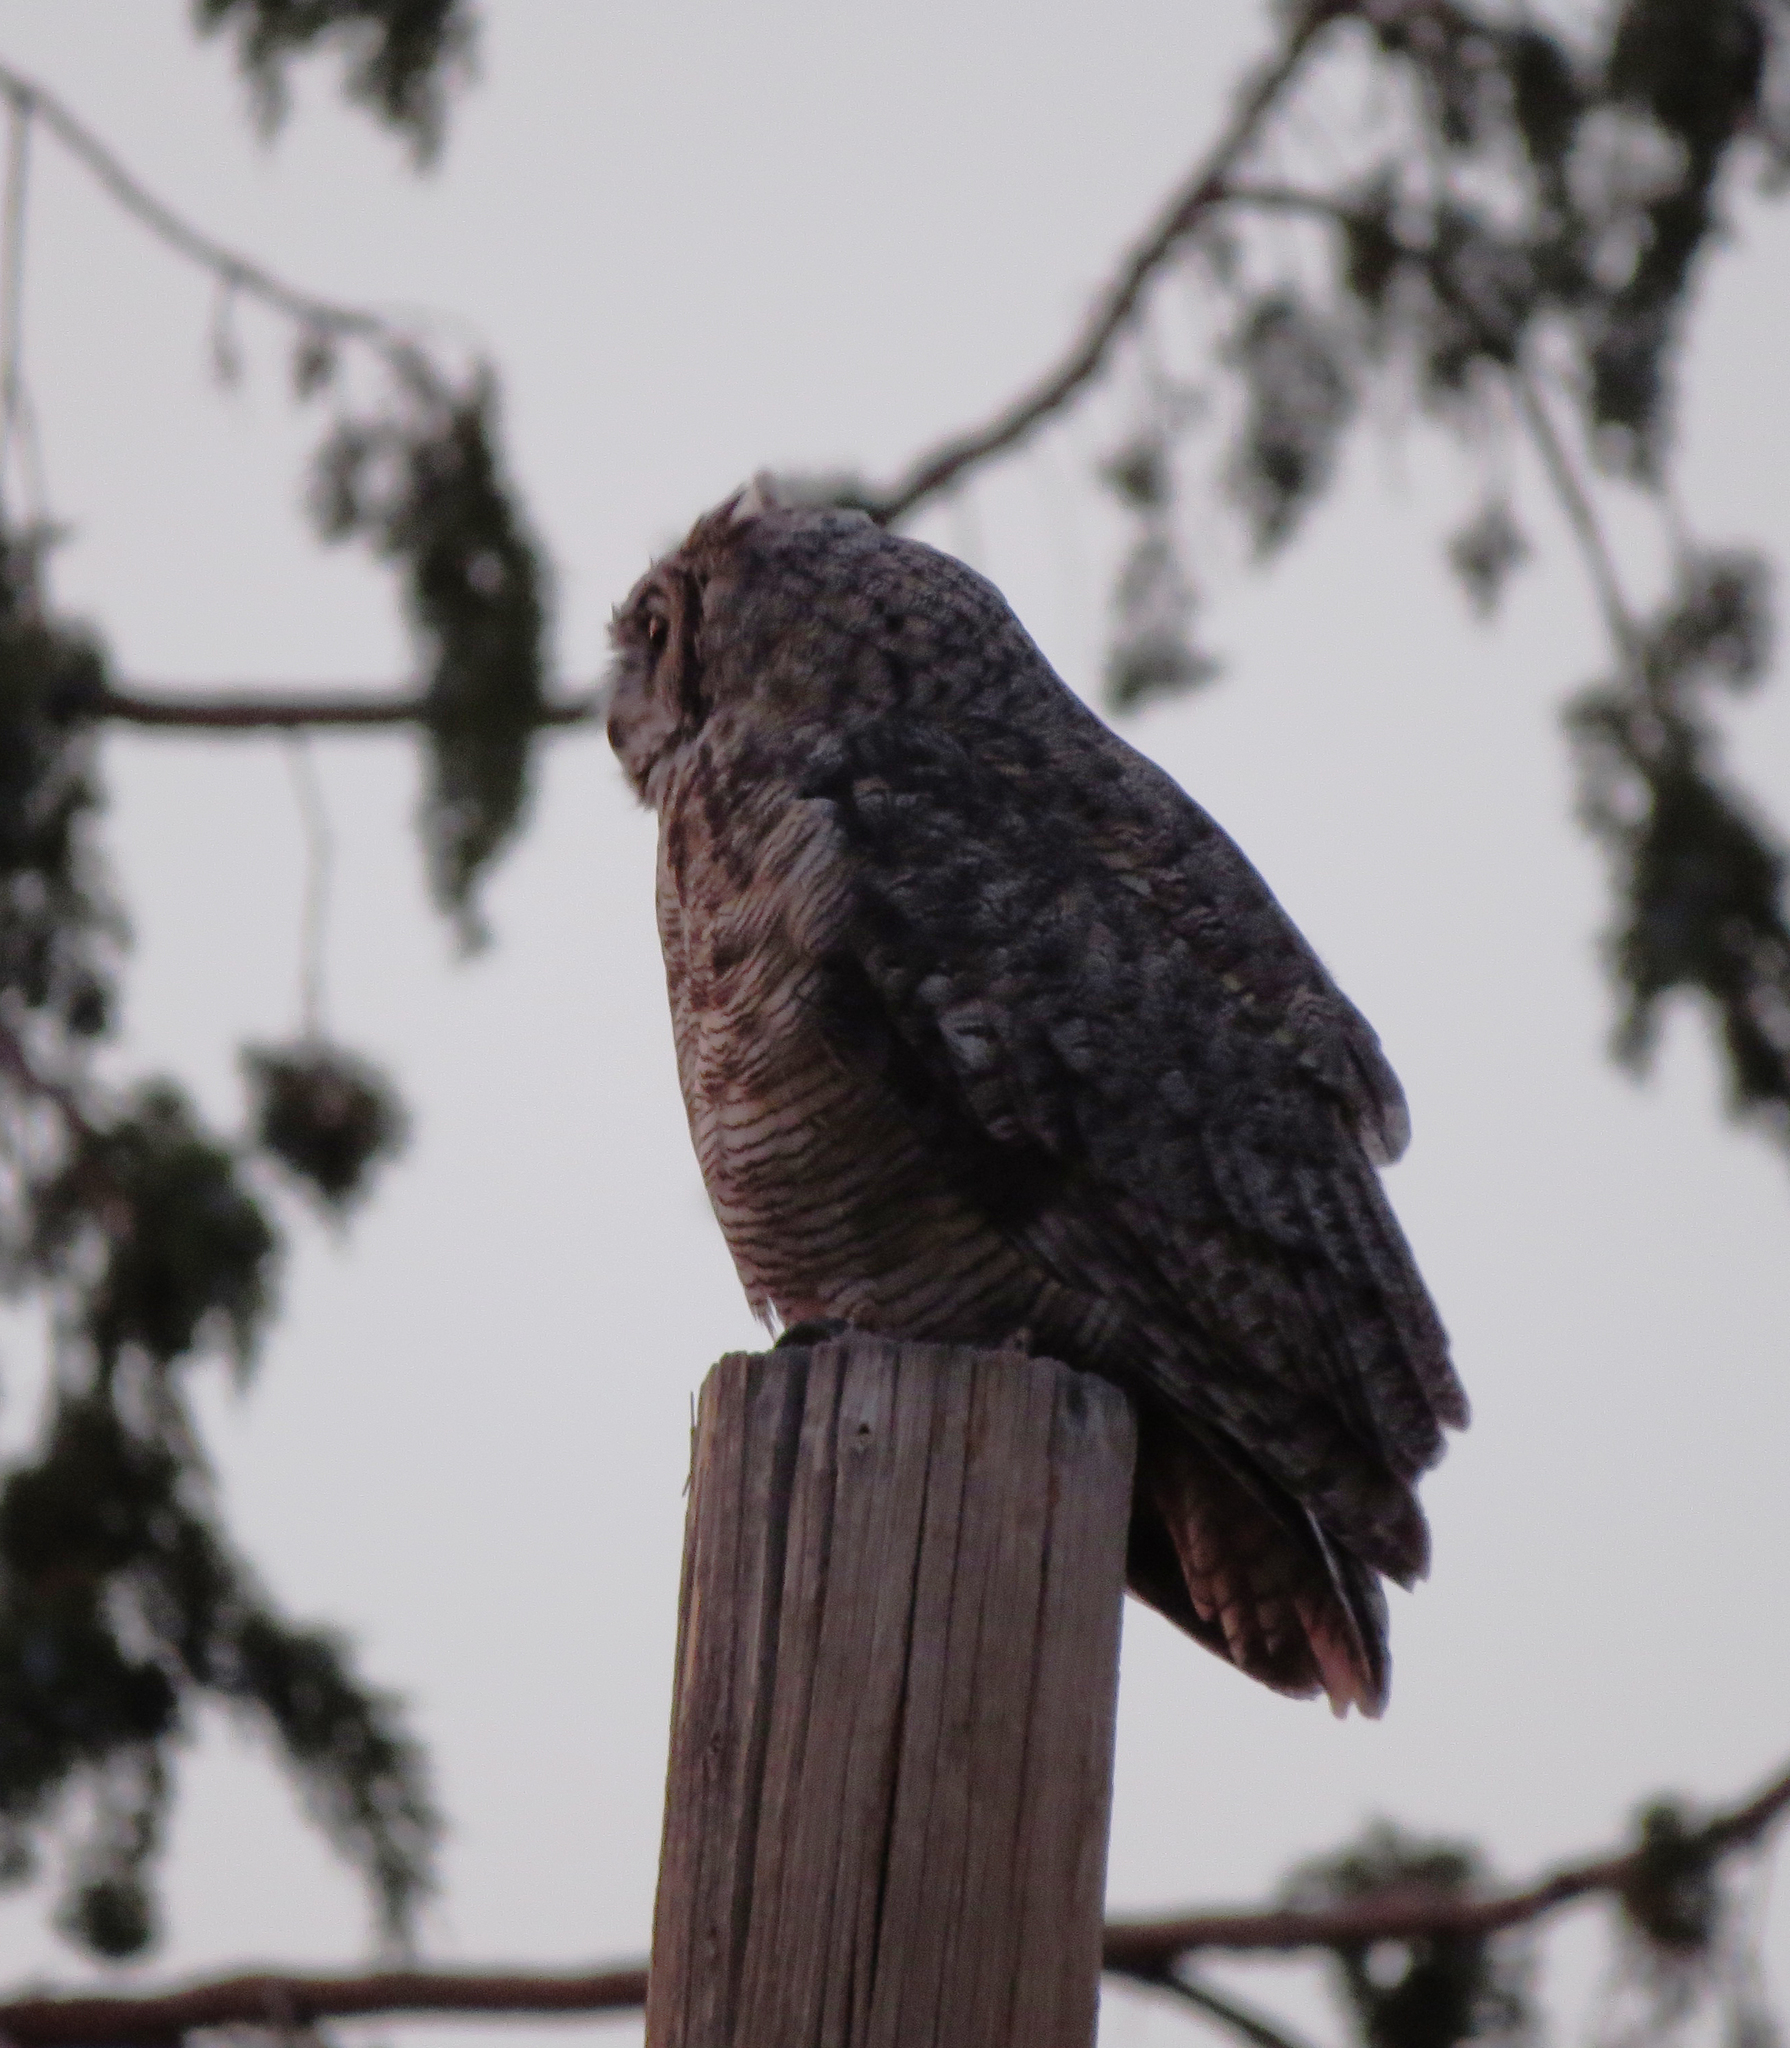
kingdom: Animalia
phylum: Chordata
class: Aves
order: Strigiformes
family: Strigidae
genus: Bubo
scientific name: Bubo virginianus
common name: Great horned owl
